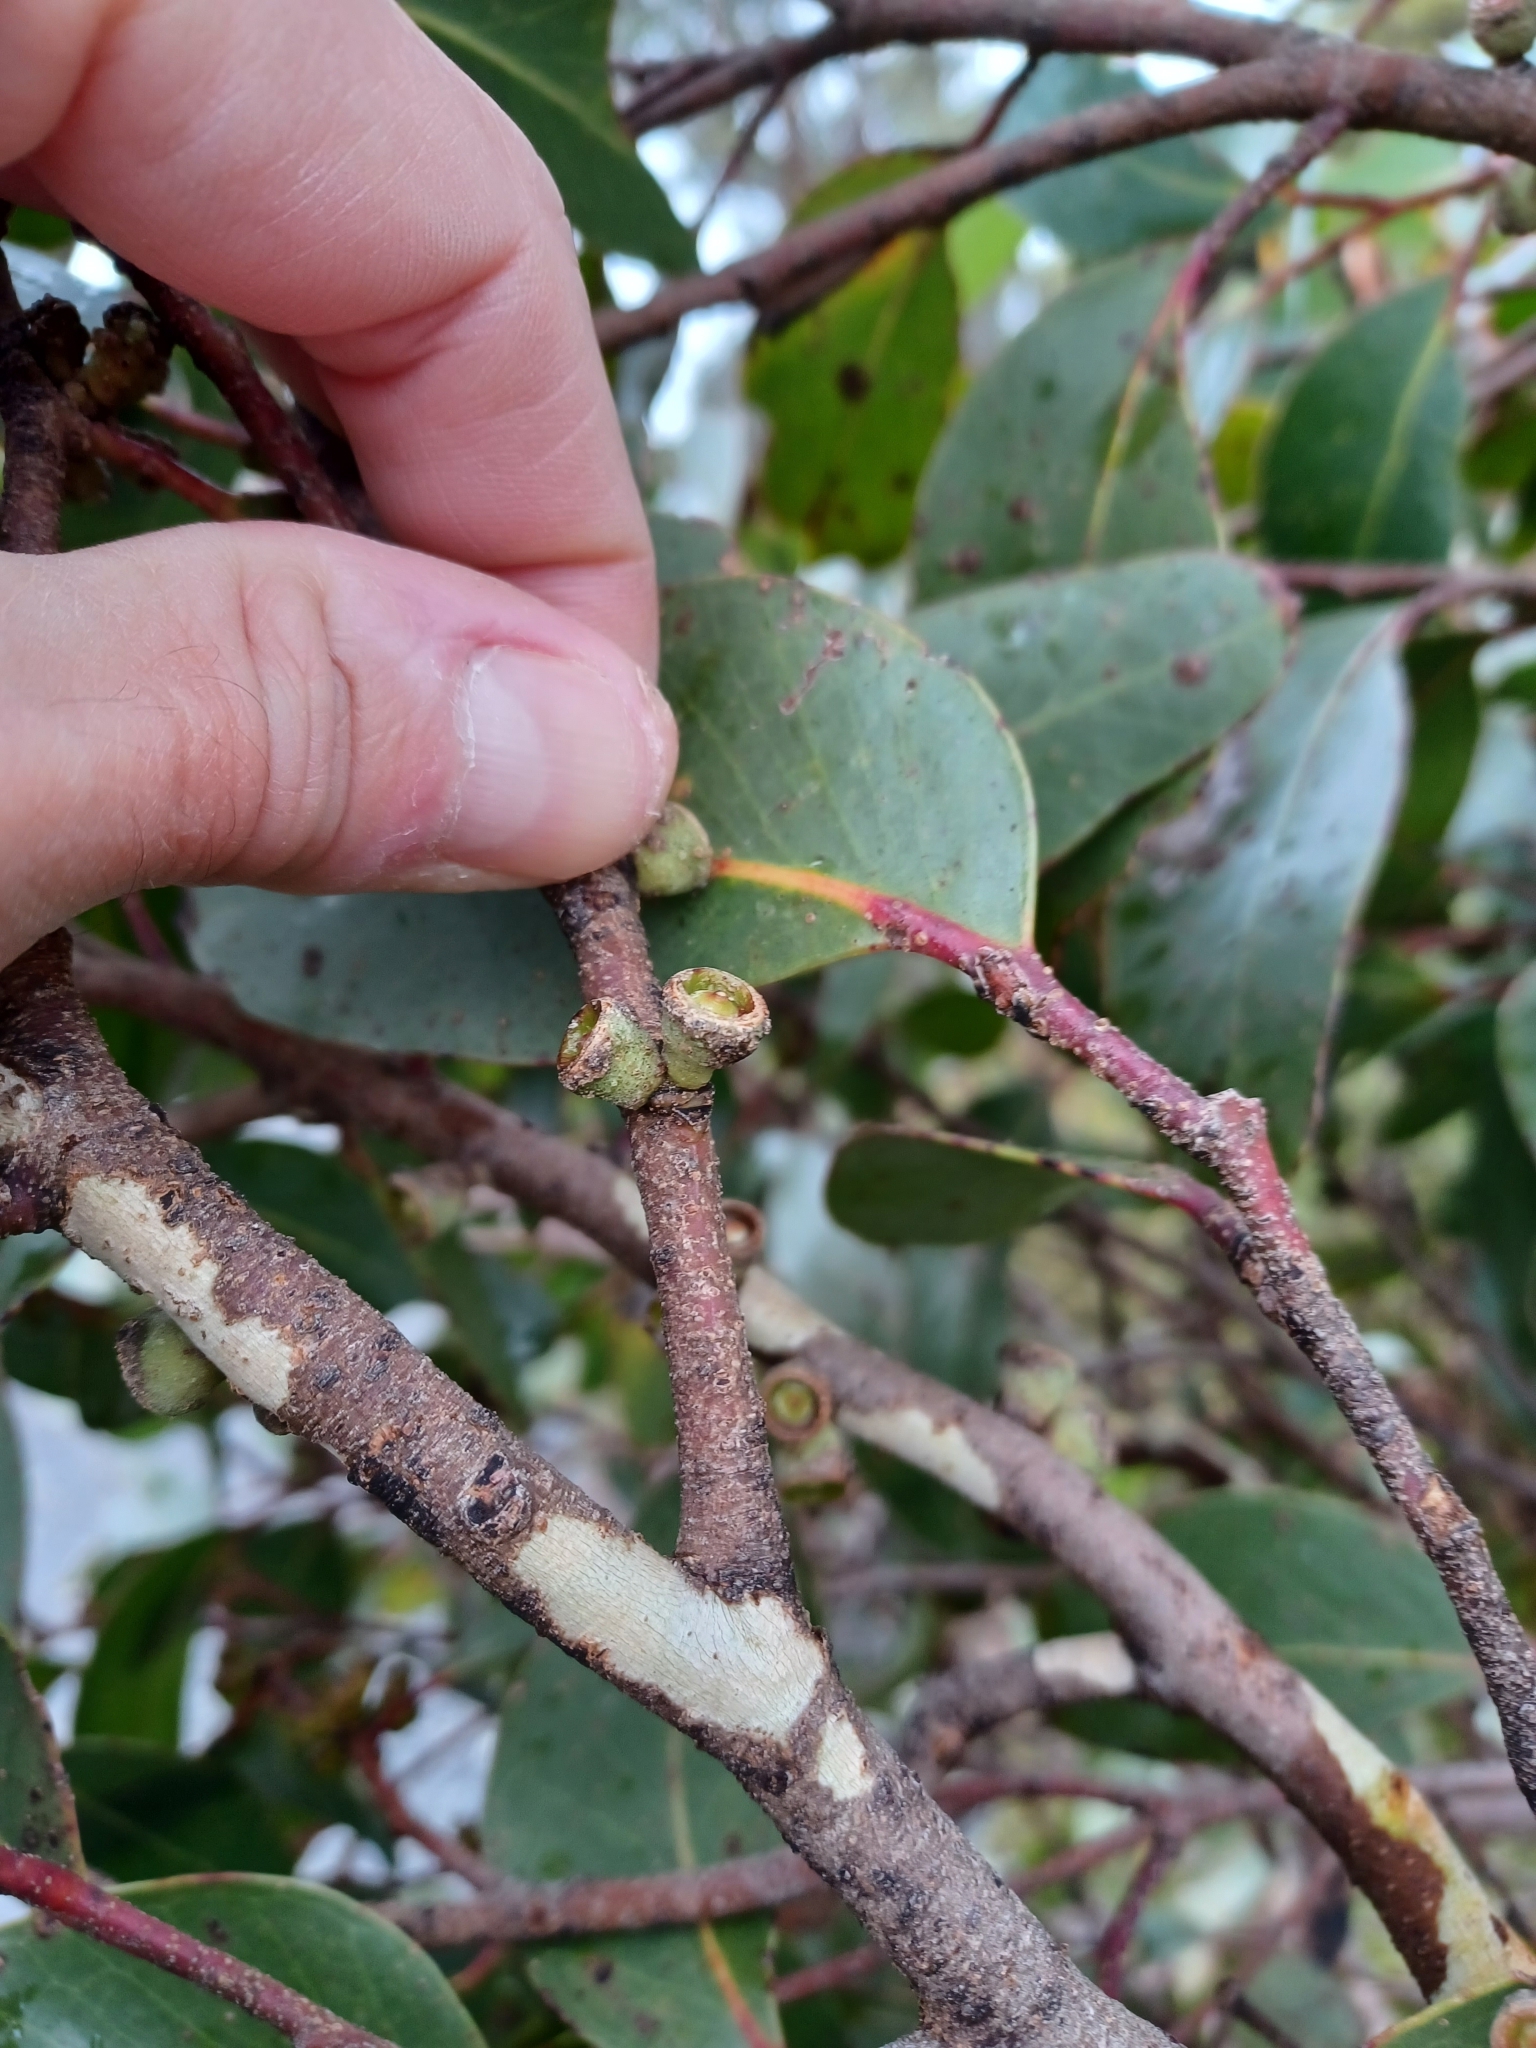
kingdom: Plantae
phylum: Tracheophyta
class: Magnoliopsida
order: Myrtales
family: Myrtaceae
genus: Eucalyptus
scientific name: Eucalyptus serraensis
